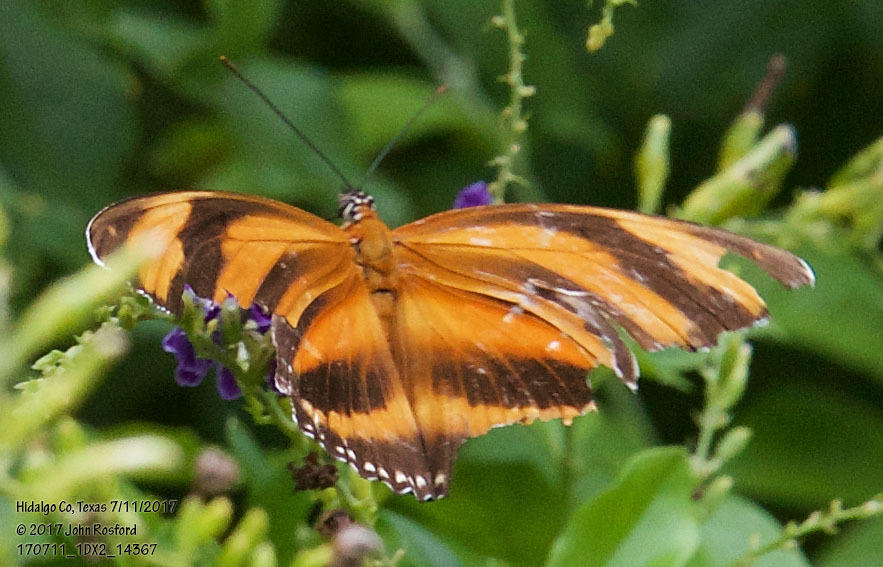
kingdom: Animalia
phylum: Arthropoda
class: Insecta
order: Lepidoptera
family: Nymphalidae
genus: Dryadula
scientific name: Dryadula phaetusa
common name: Banded orange heliconian
